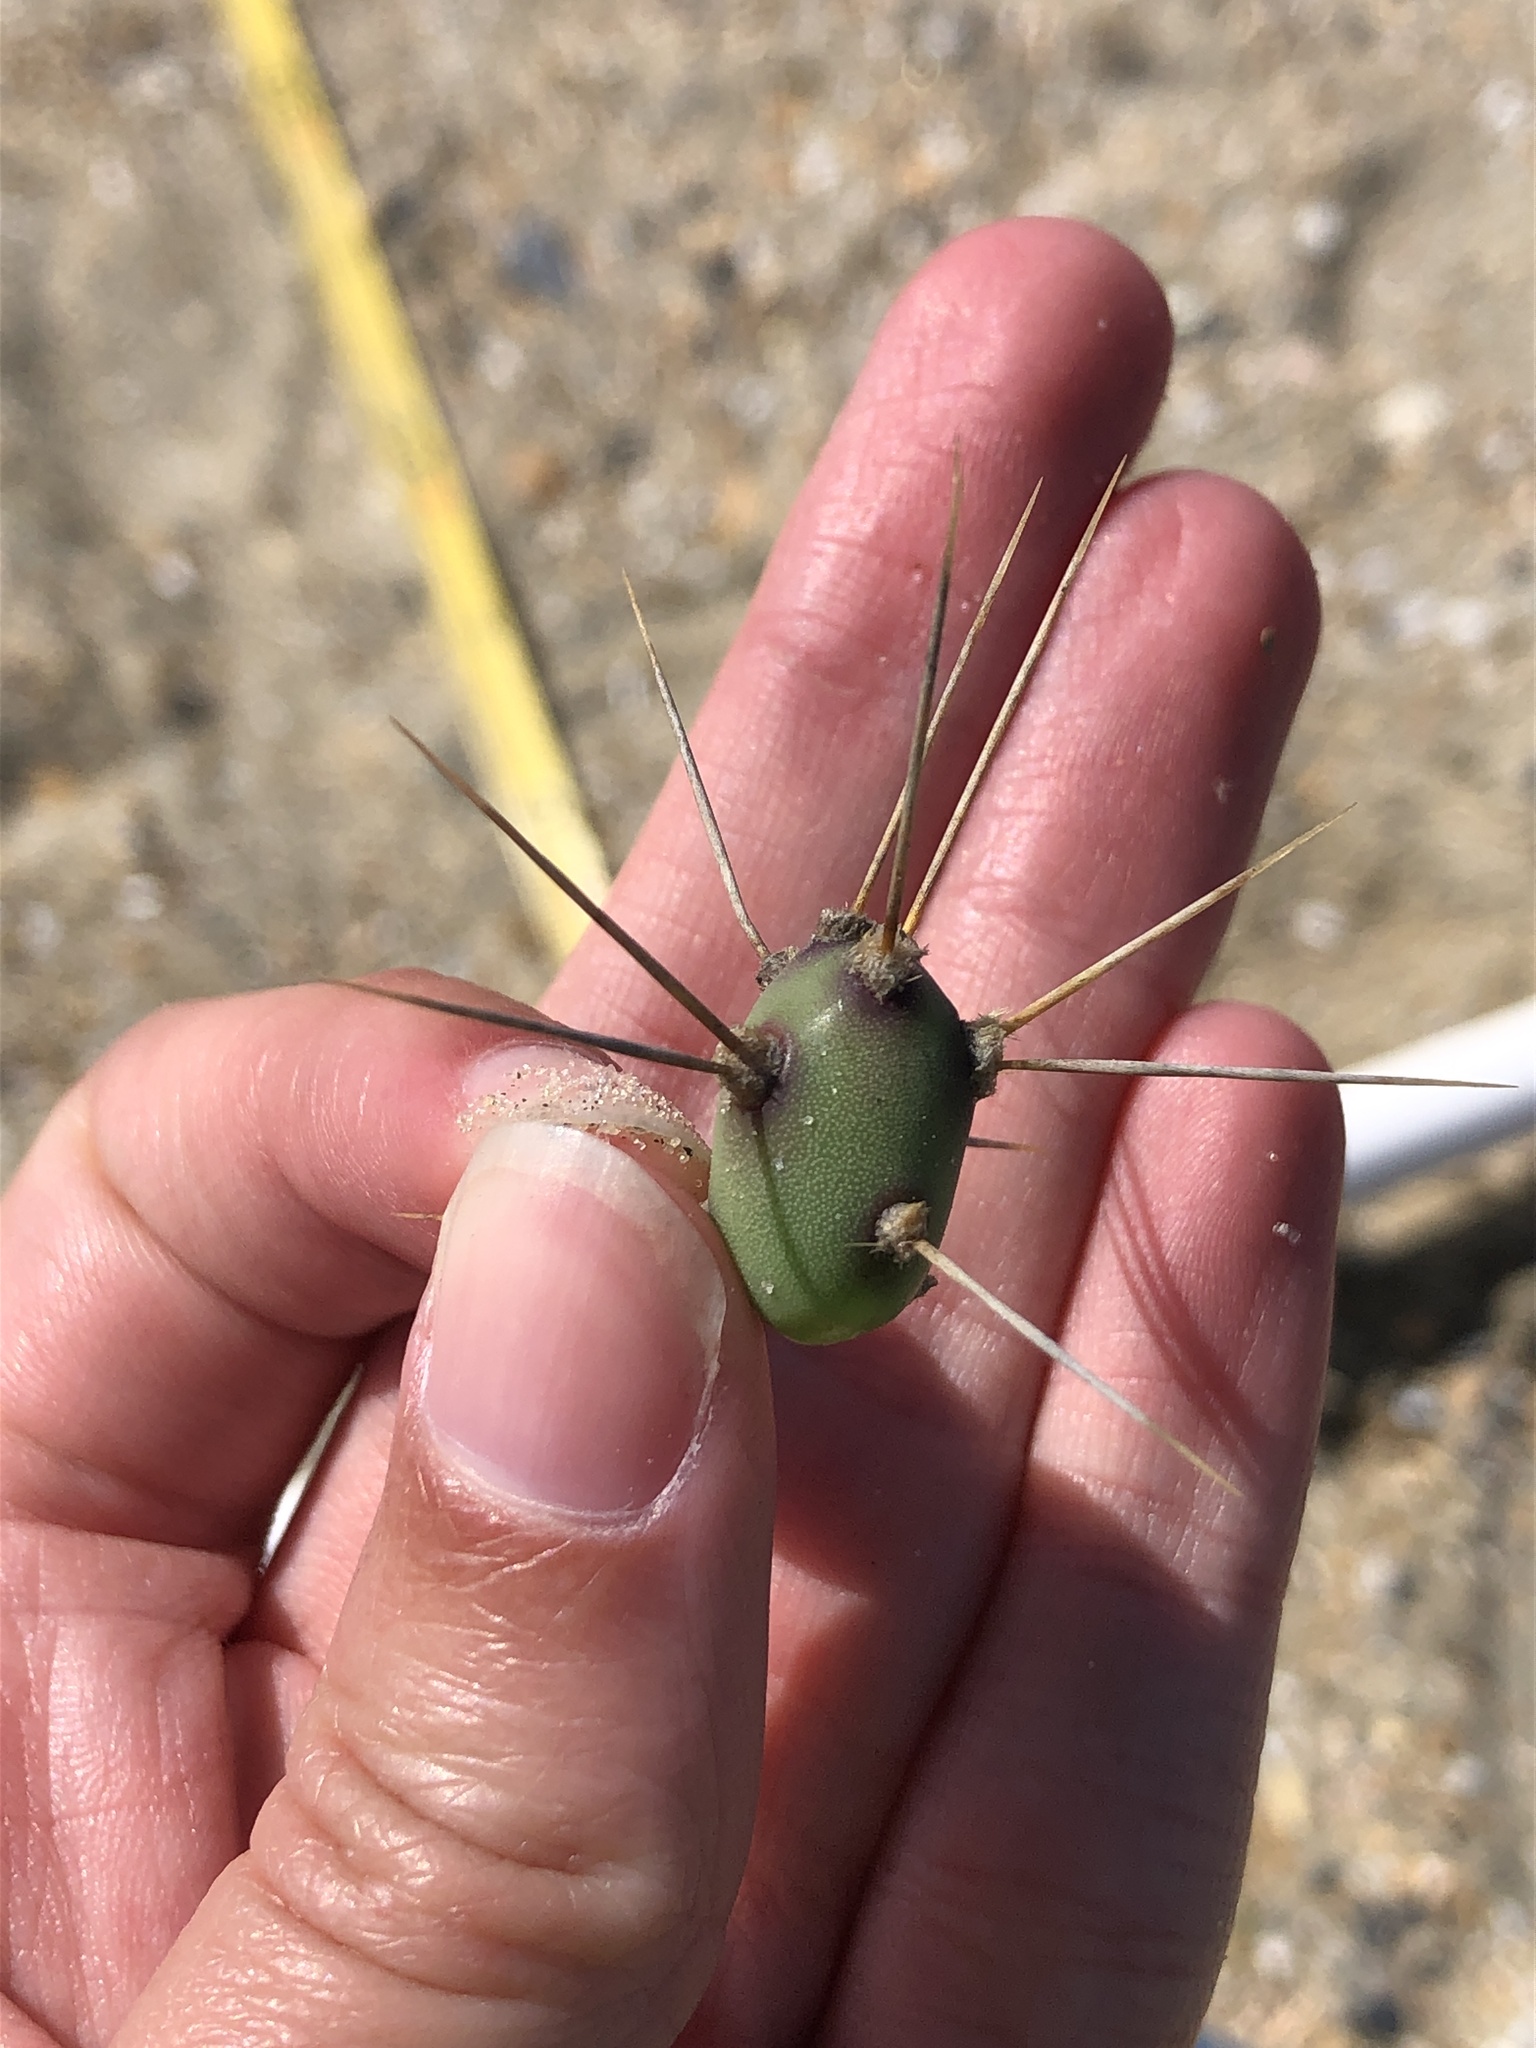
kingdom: Plantae
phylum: Tracheophyta
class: Magnoliopsida
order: Caryophyllales
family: Cactaceae
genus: Opuntia
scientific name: Opuntia drummondii
